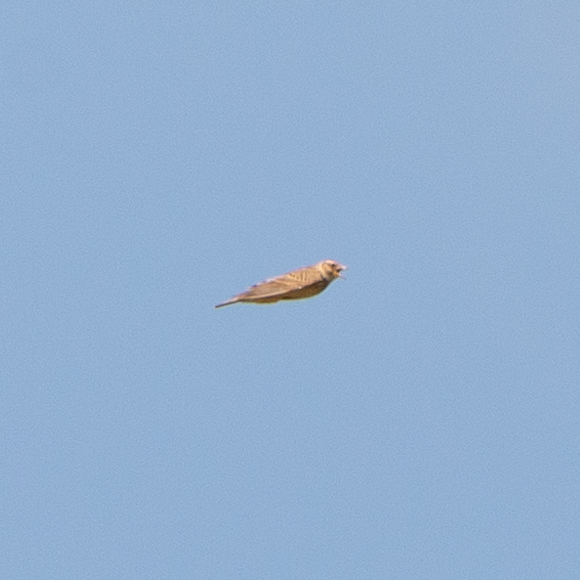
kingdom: Animalia
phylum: Chordata
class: Aves
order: Passeriformes
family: Alaudidae
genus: Alauda
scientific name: Alauda arvensis
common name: Eurasian skylark
